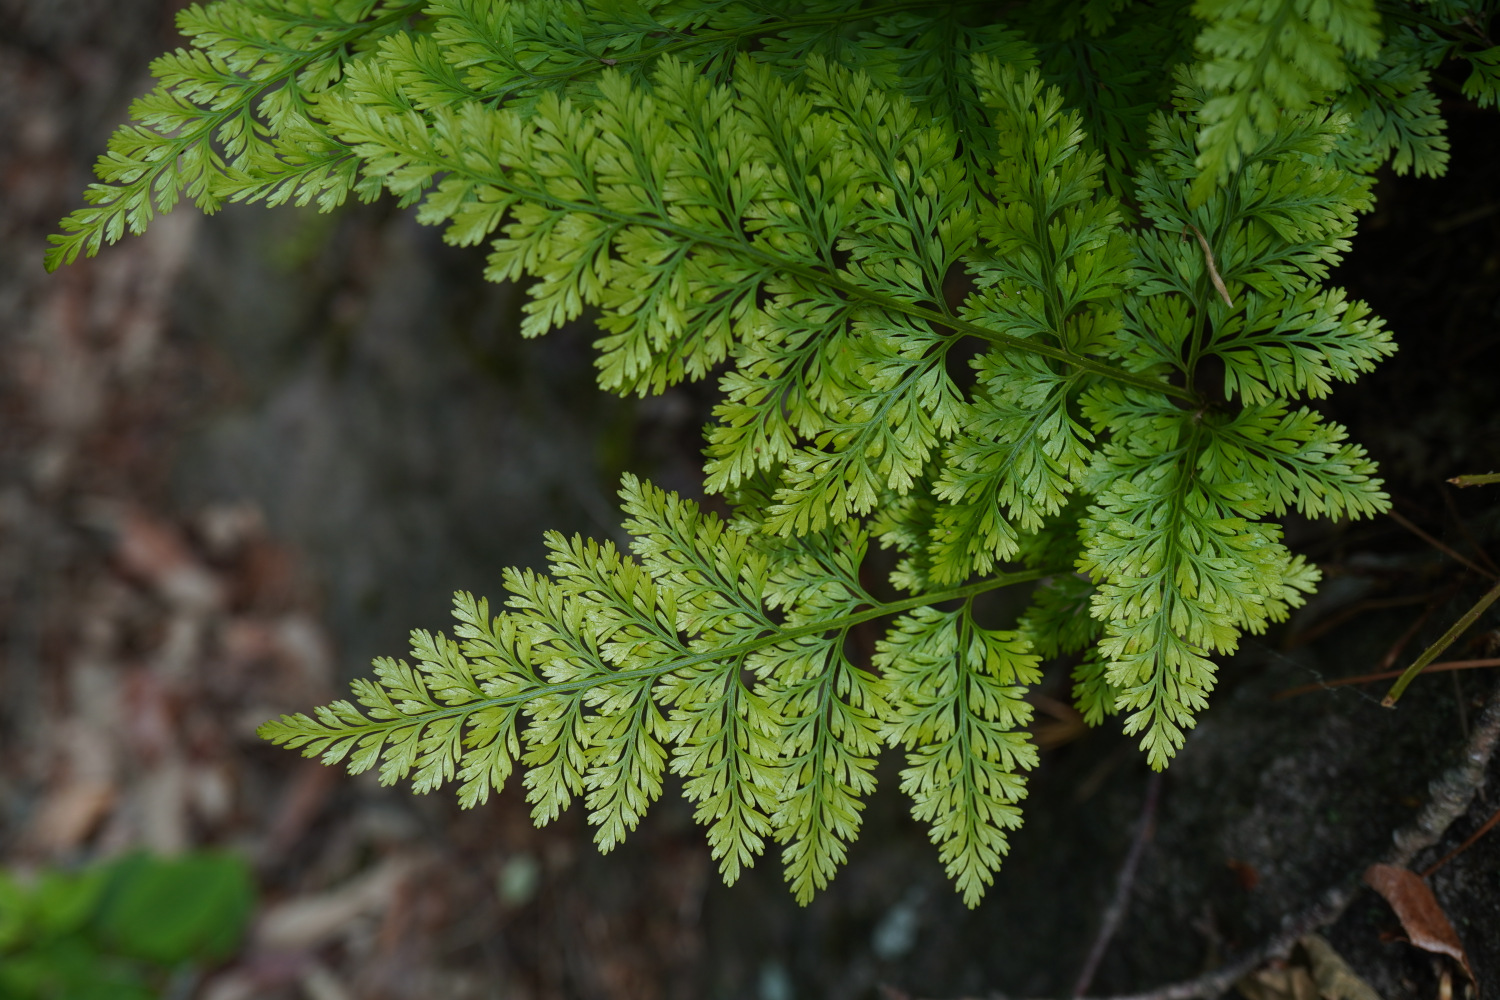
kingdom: Plantae
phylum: Tracheophyta
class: Polypodiopsida
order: Polypodiales
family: Davalliaceae
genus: Davallia
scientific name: Davallia mariesii
